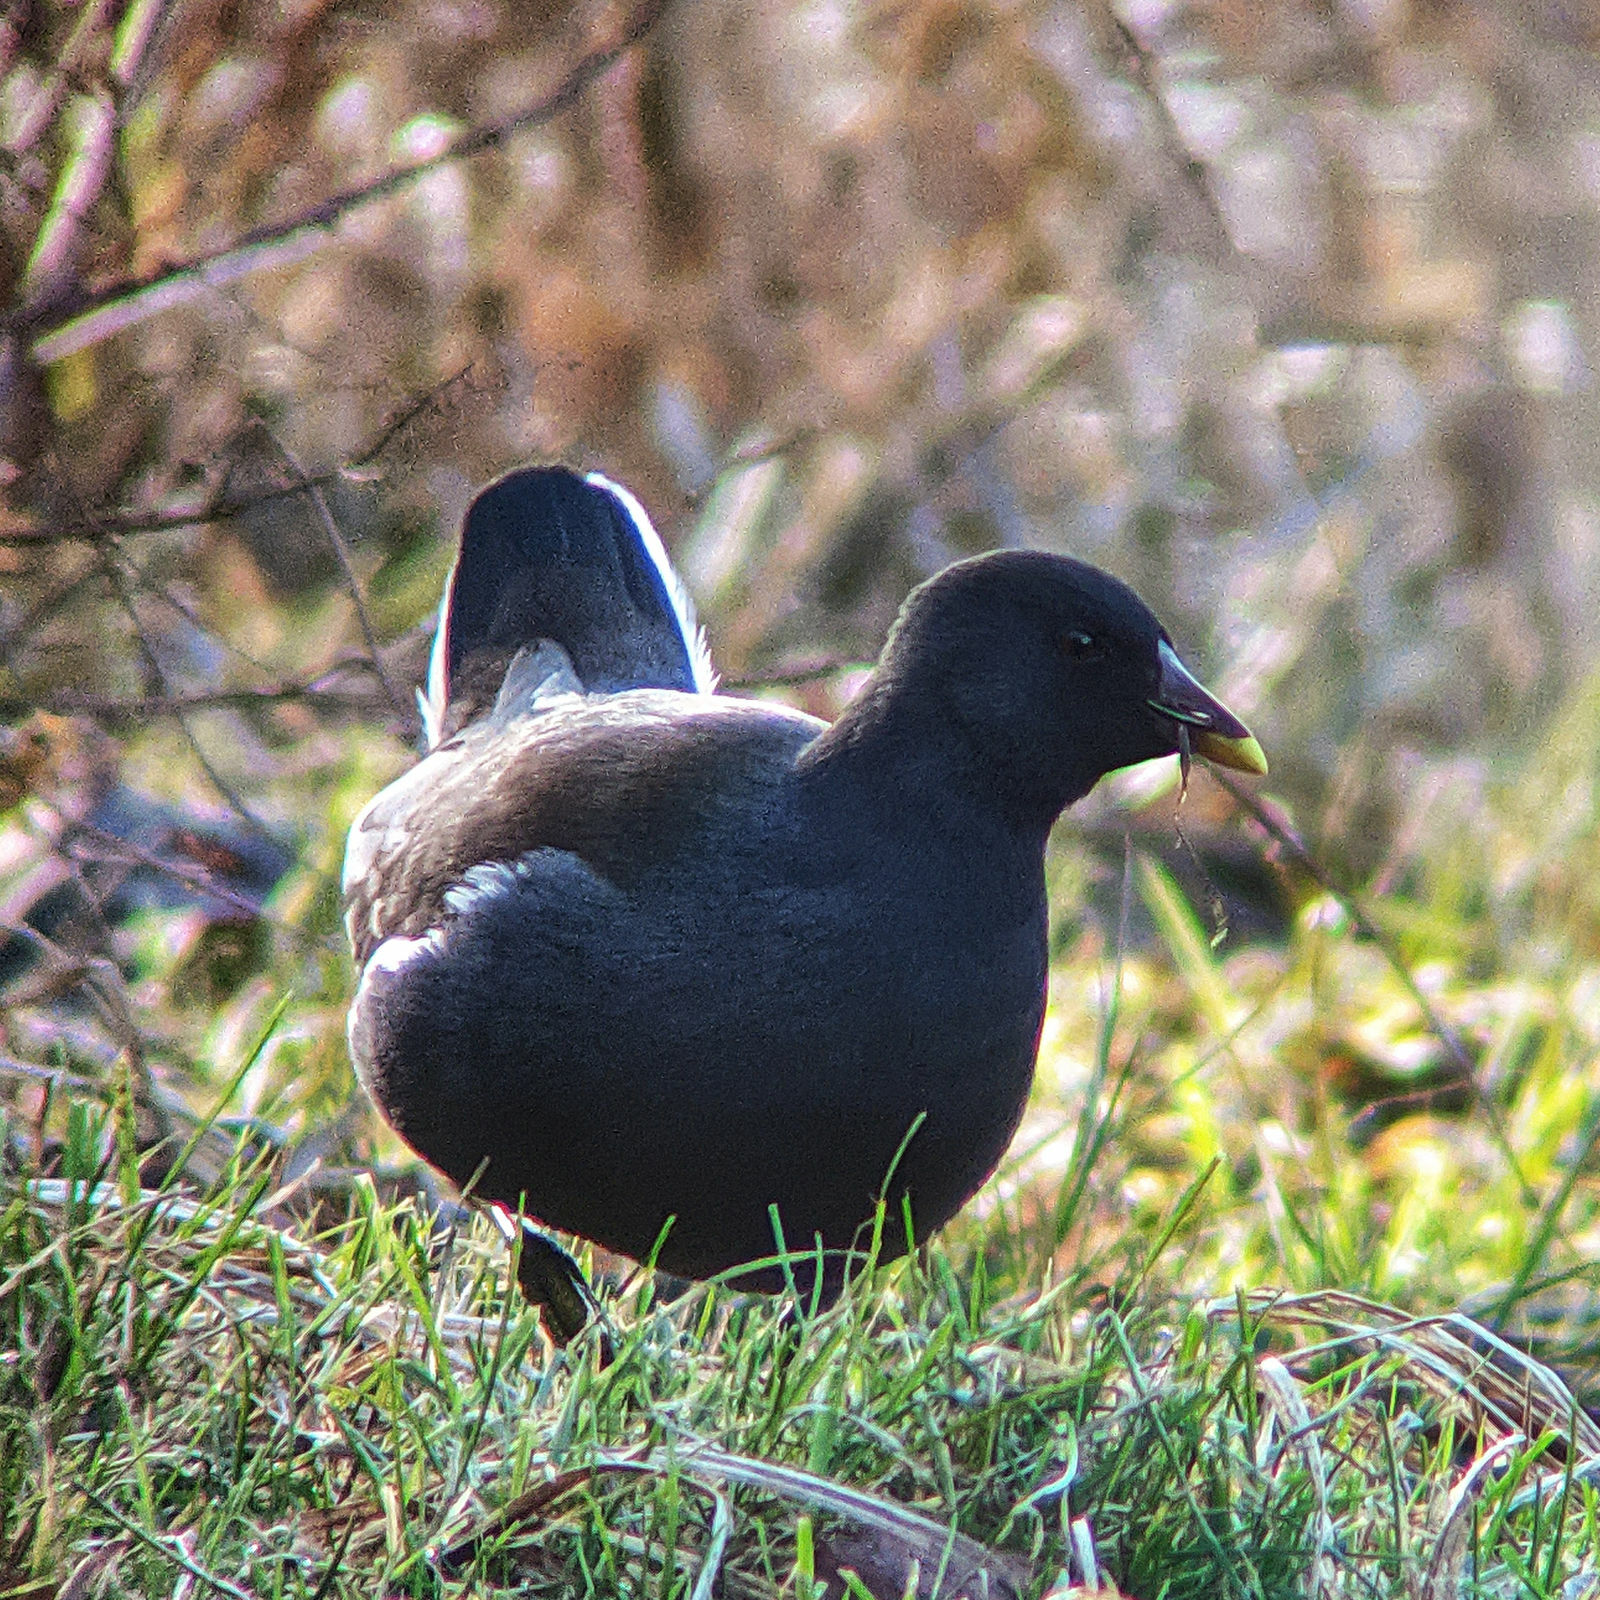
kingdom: Animalia
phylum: Chordata
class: Aves
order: Gruiformes
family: Rallidae
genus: Gallinula
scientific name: Gallinula chloropus
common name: Common moorhen
